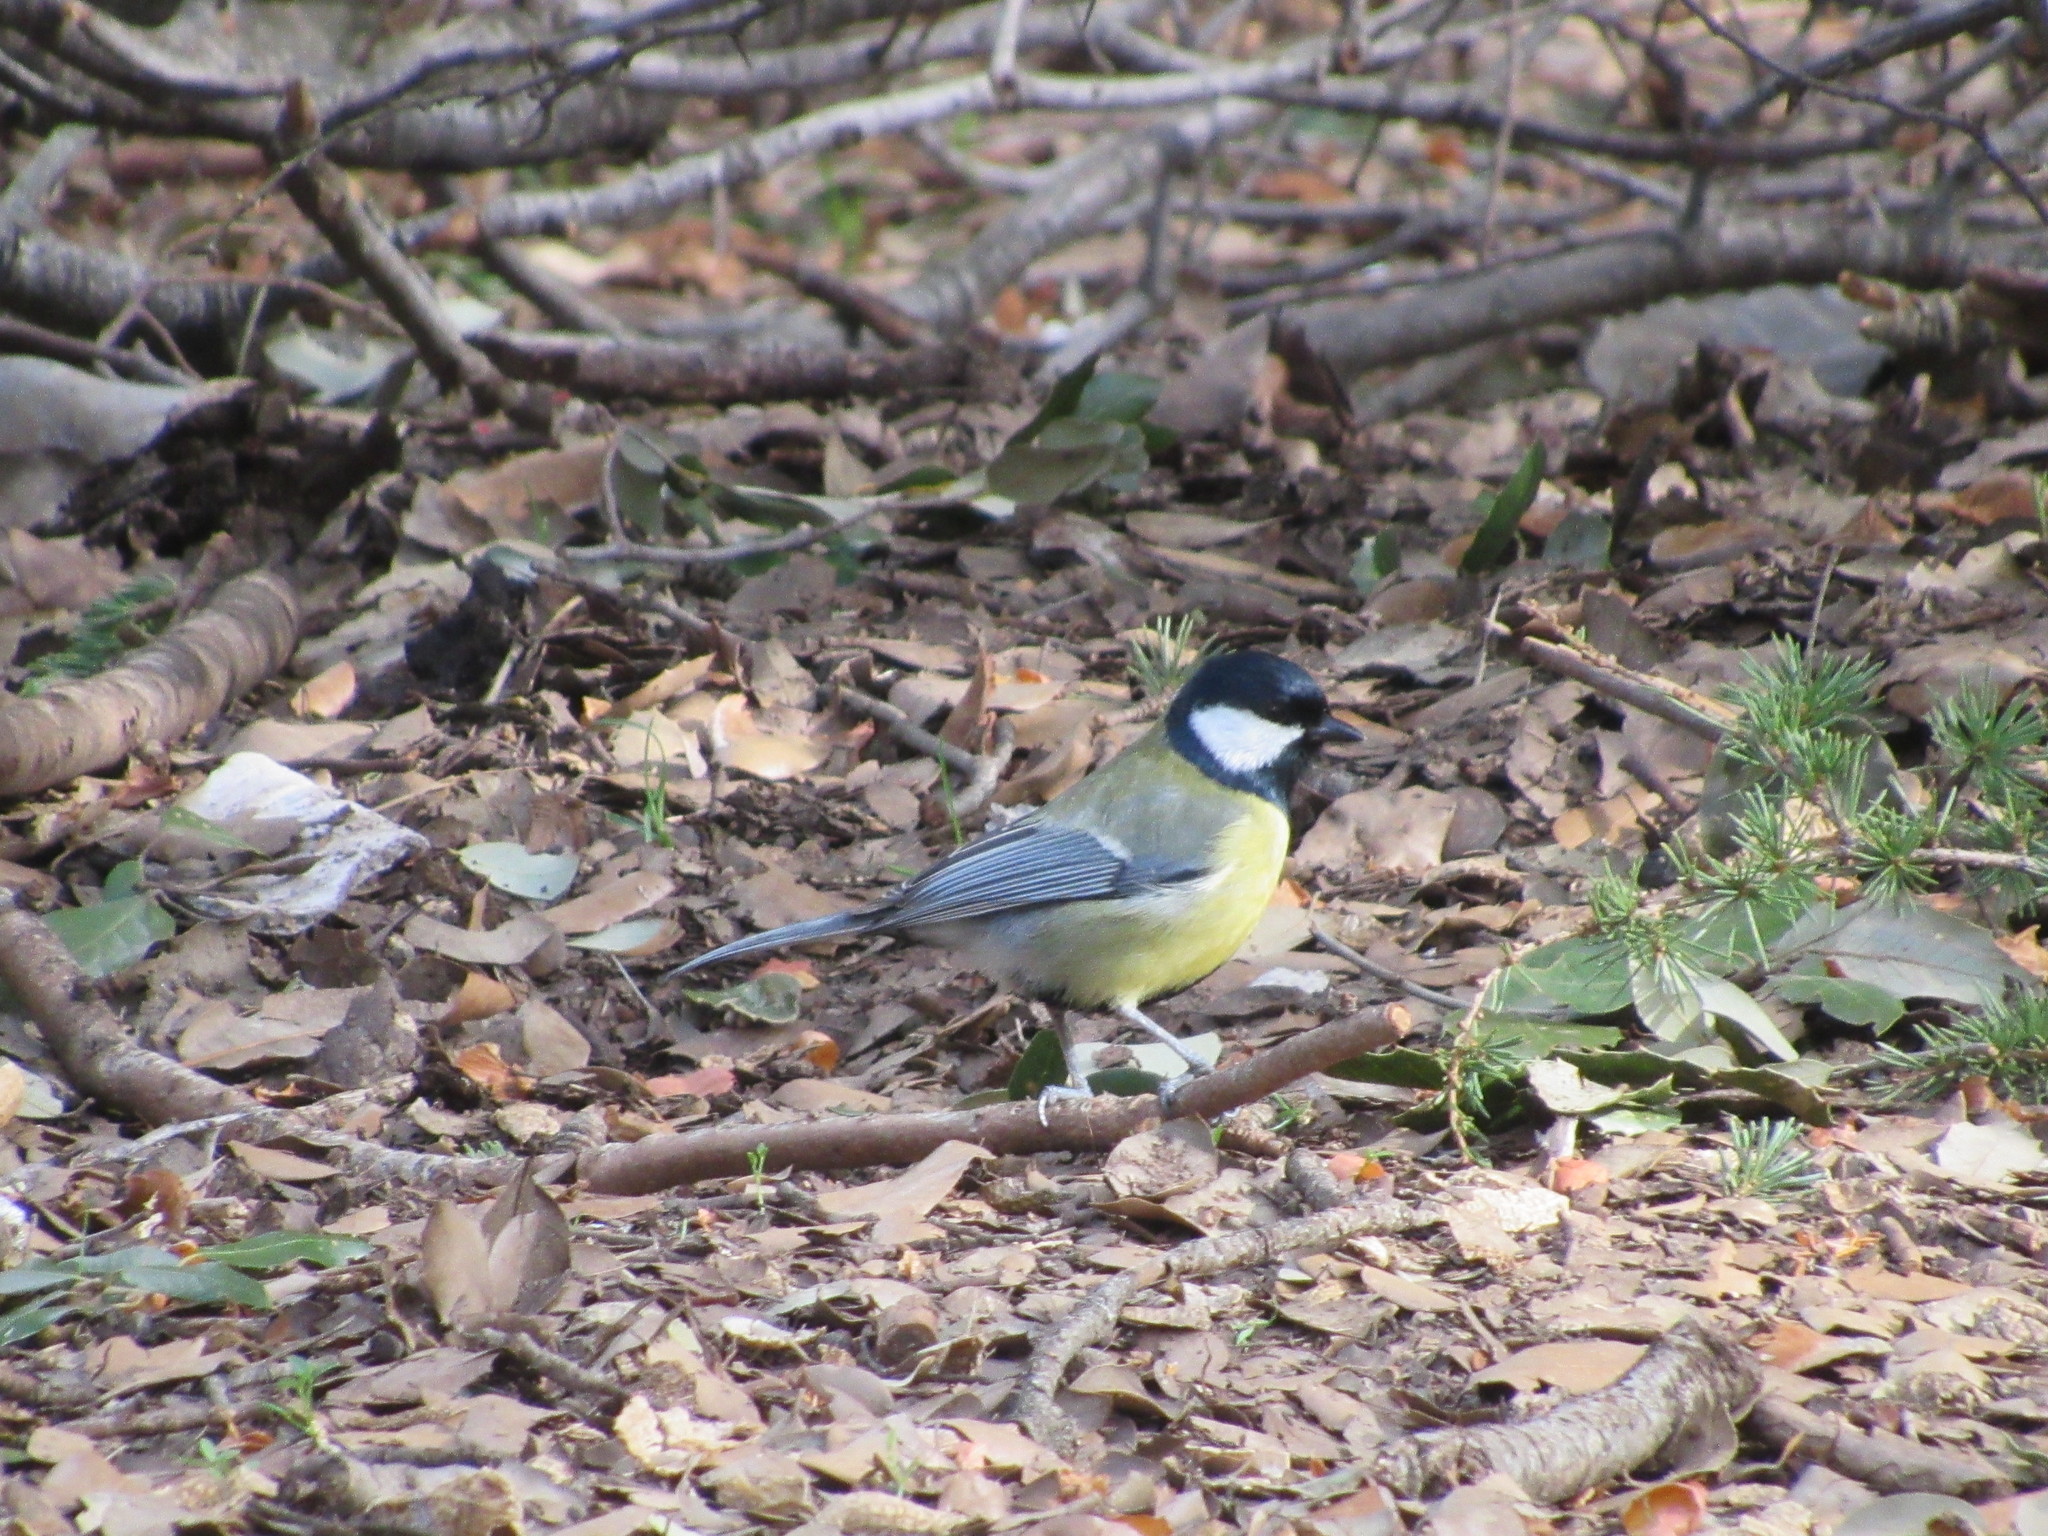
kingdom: Animalia
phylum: Chordata
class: Aves
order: Passeriformes
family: Paridae
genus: Parus
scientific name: Parus major
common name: Great tit
